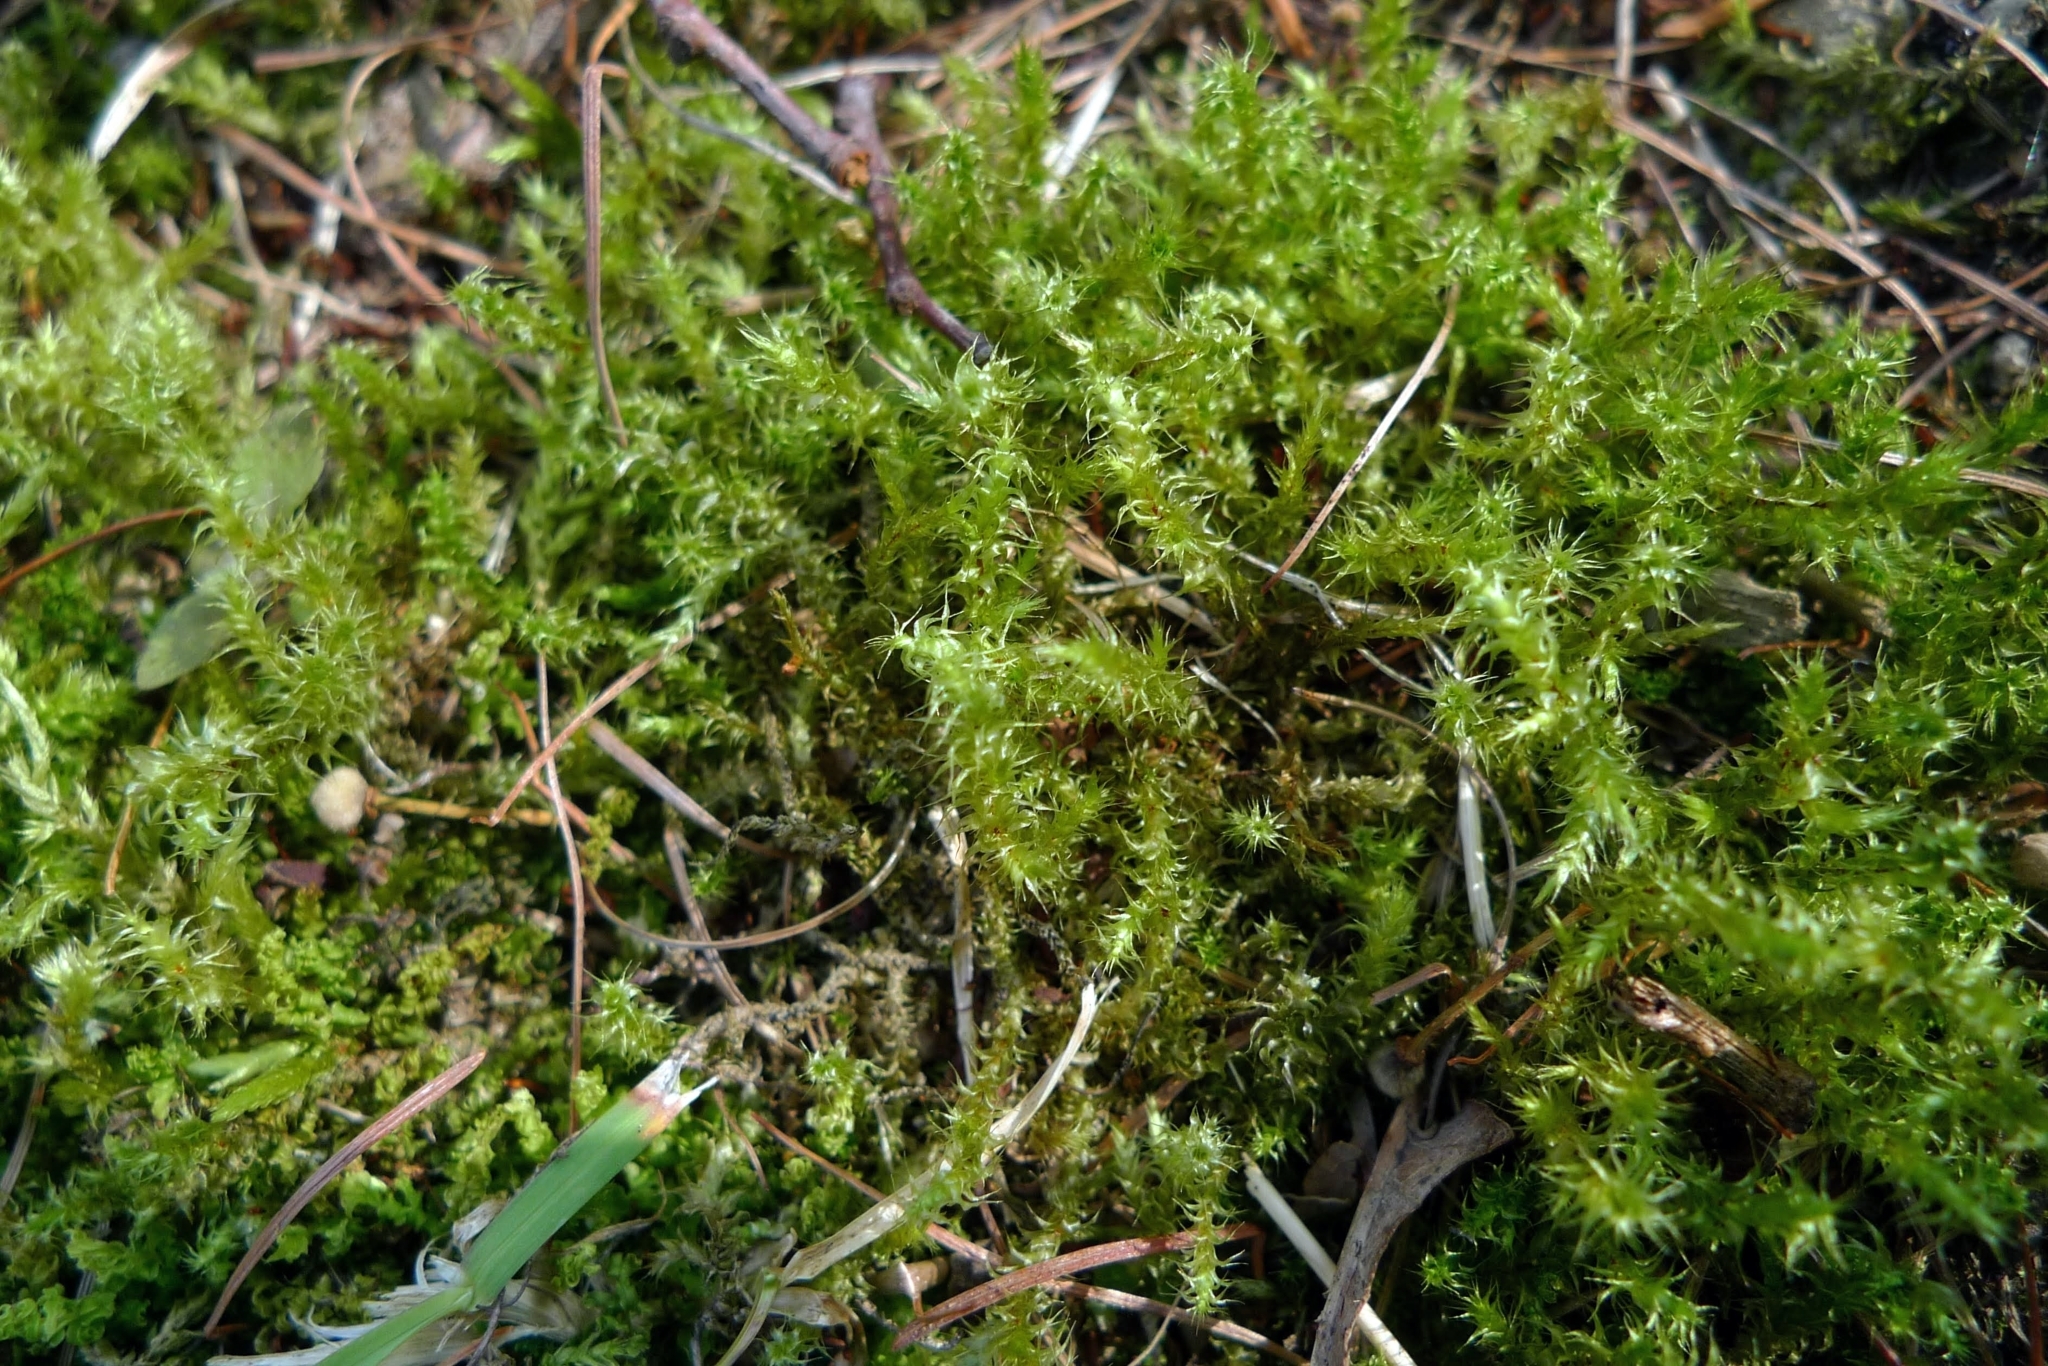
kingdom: Plantae
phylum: Bryophyta
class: Bryopsida
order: Hypnales
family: Hylocomiaceae
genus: Rhytidiadelphus
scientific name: Rhytidiadelphus squarrosus
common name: Springy turf-moss
